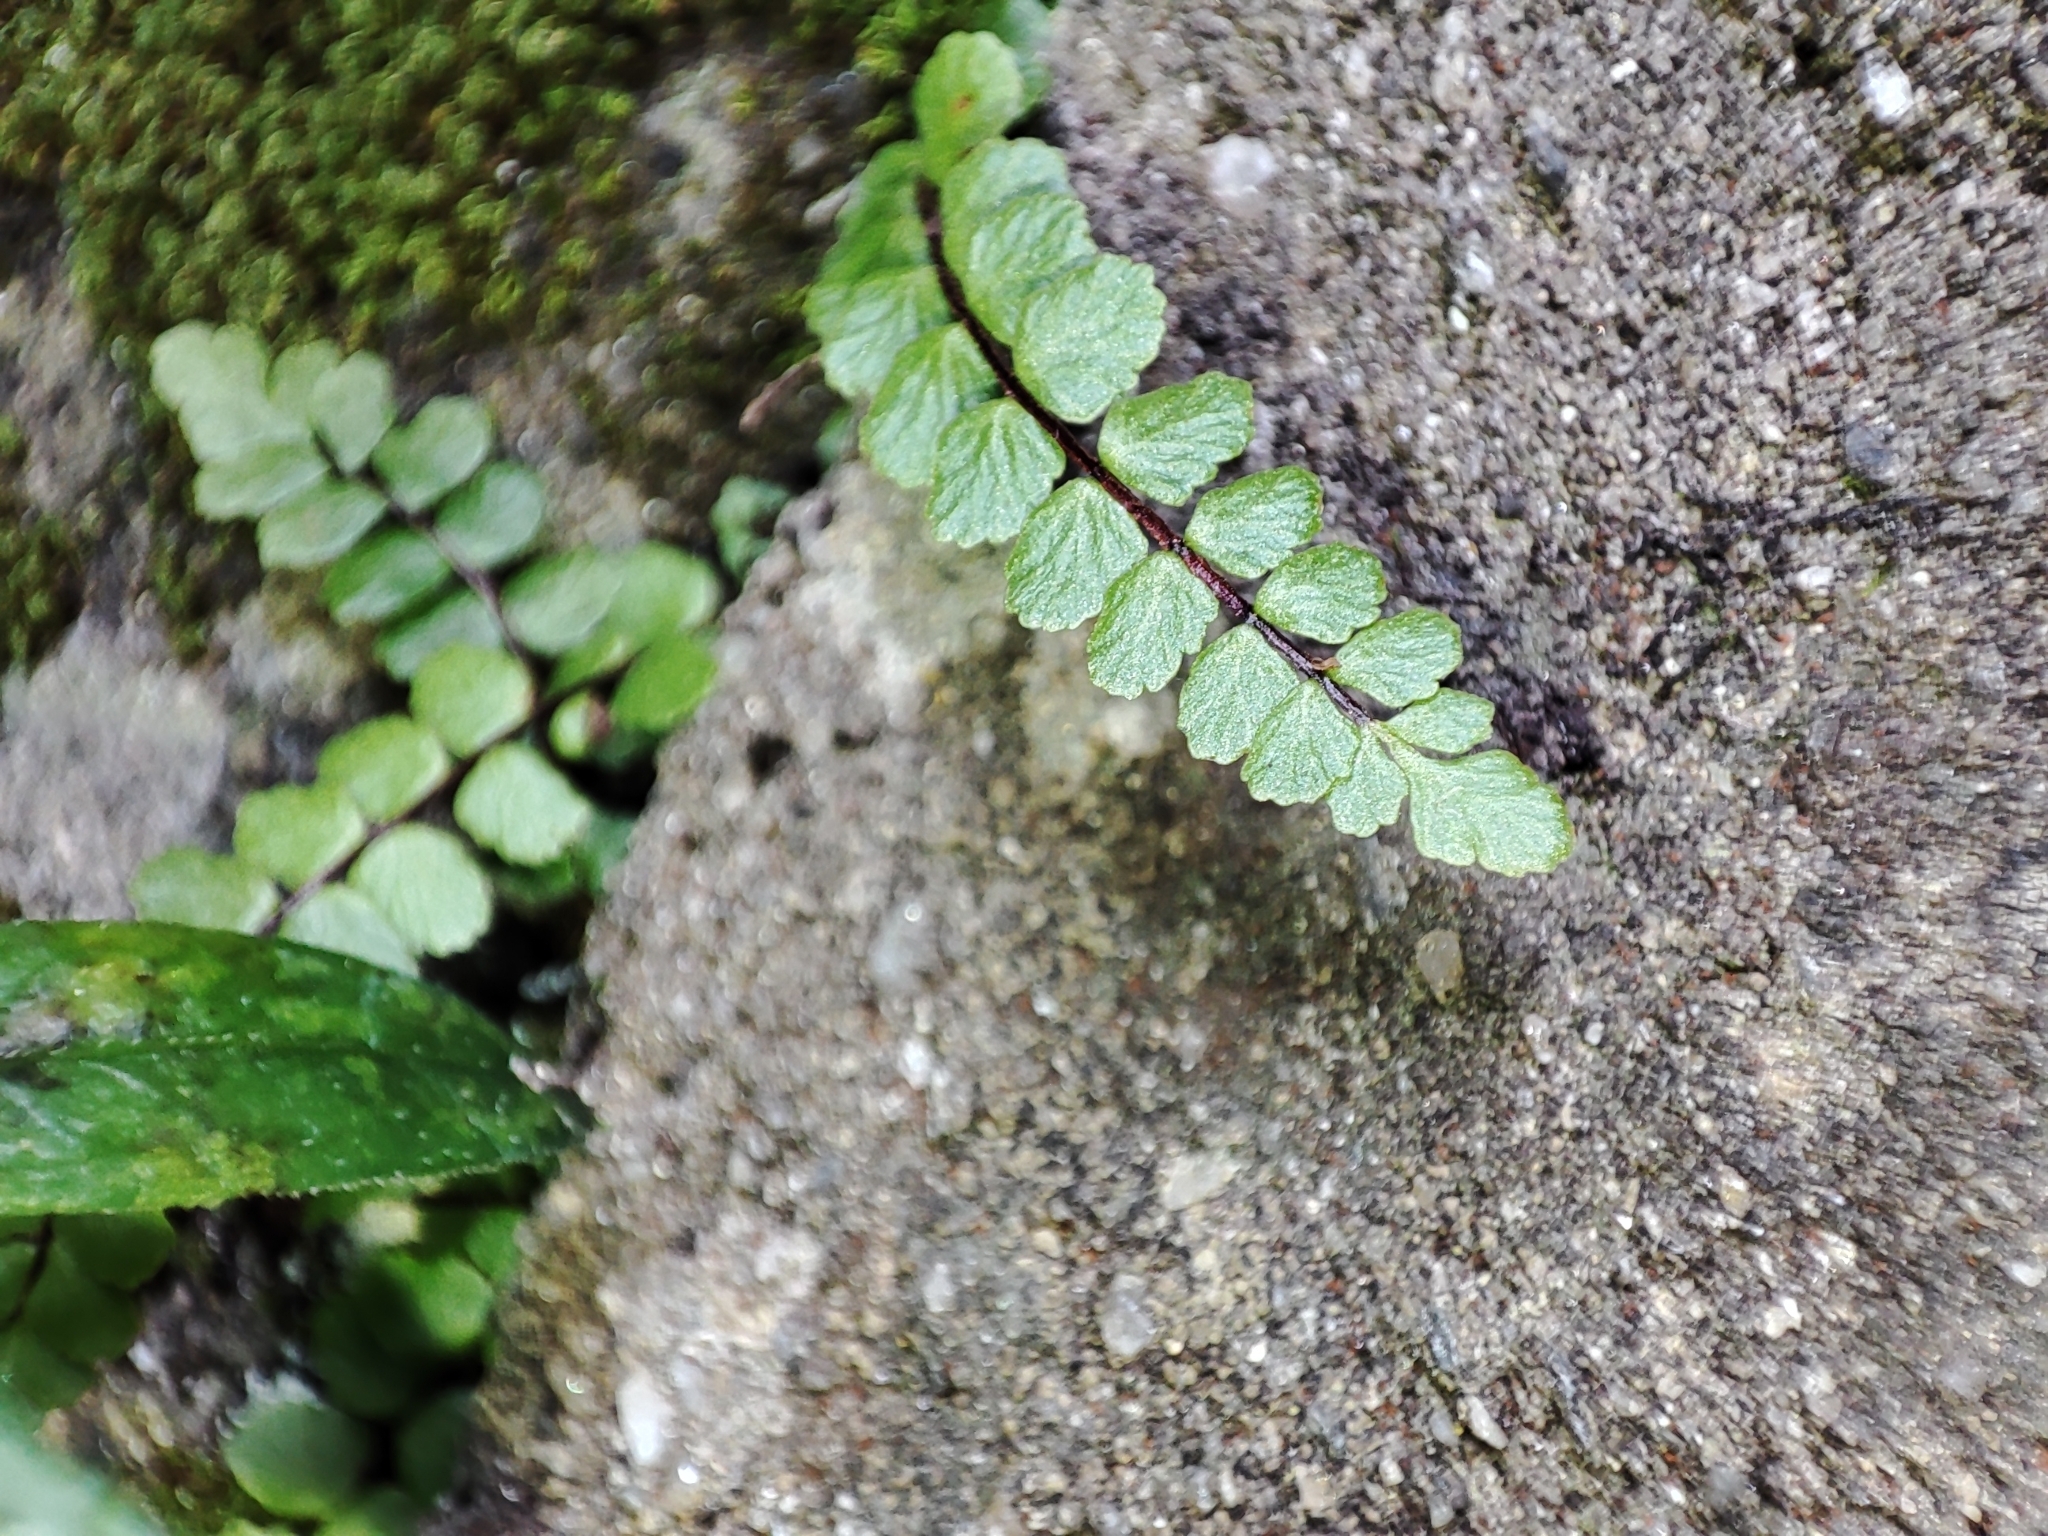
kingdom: Plantae
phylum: Tracheophyta
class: Polypodiopsida
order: Polypodiales
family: Aspleniaceae
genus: Asplenium
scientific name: Asplenium trichomanes
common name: Maidenhair spleenwort
